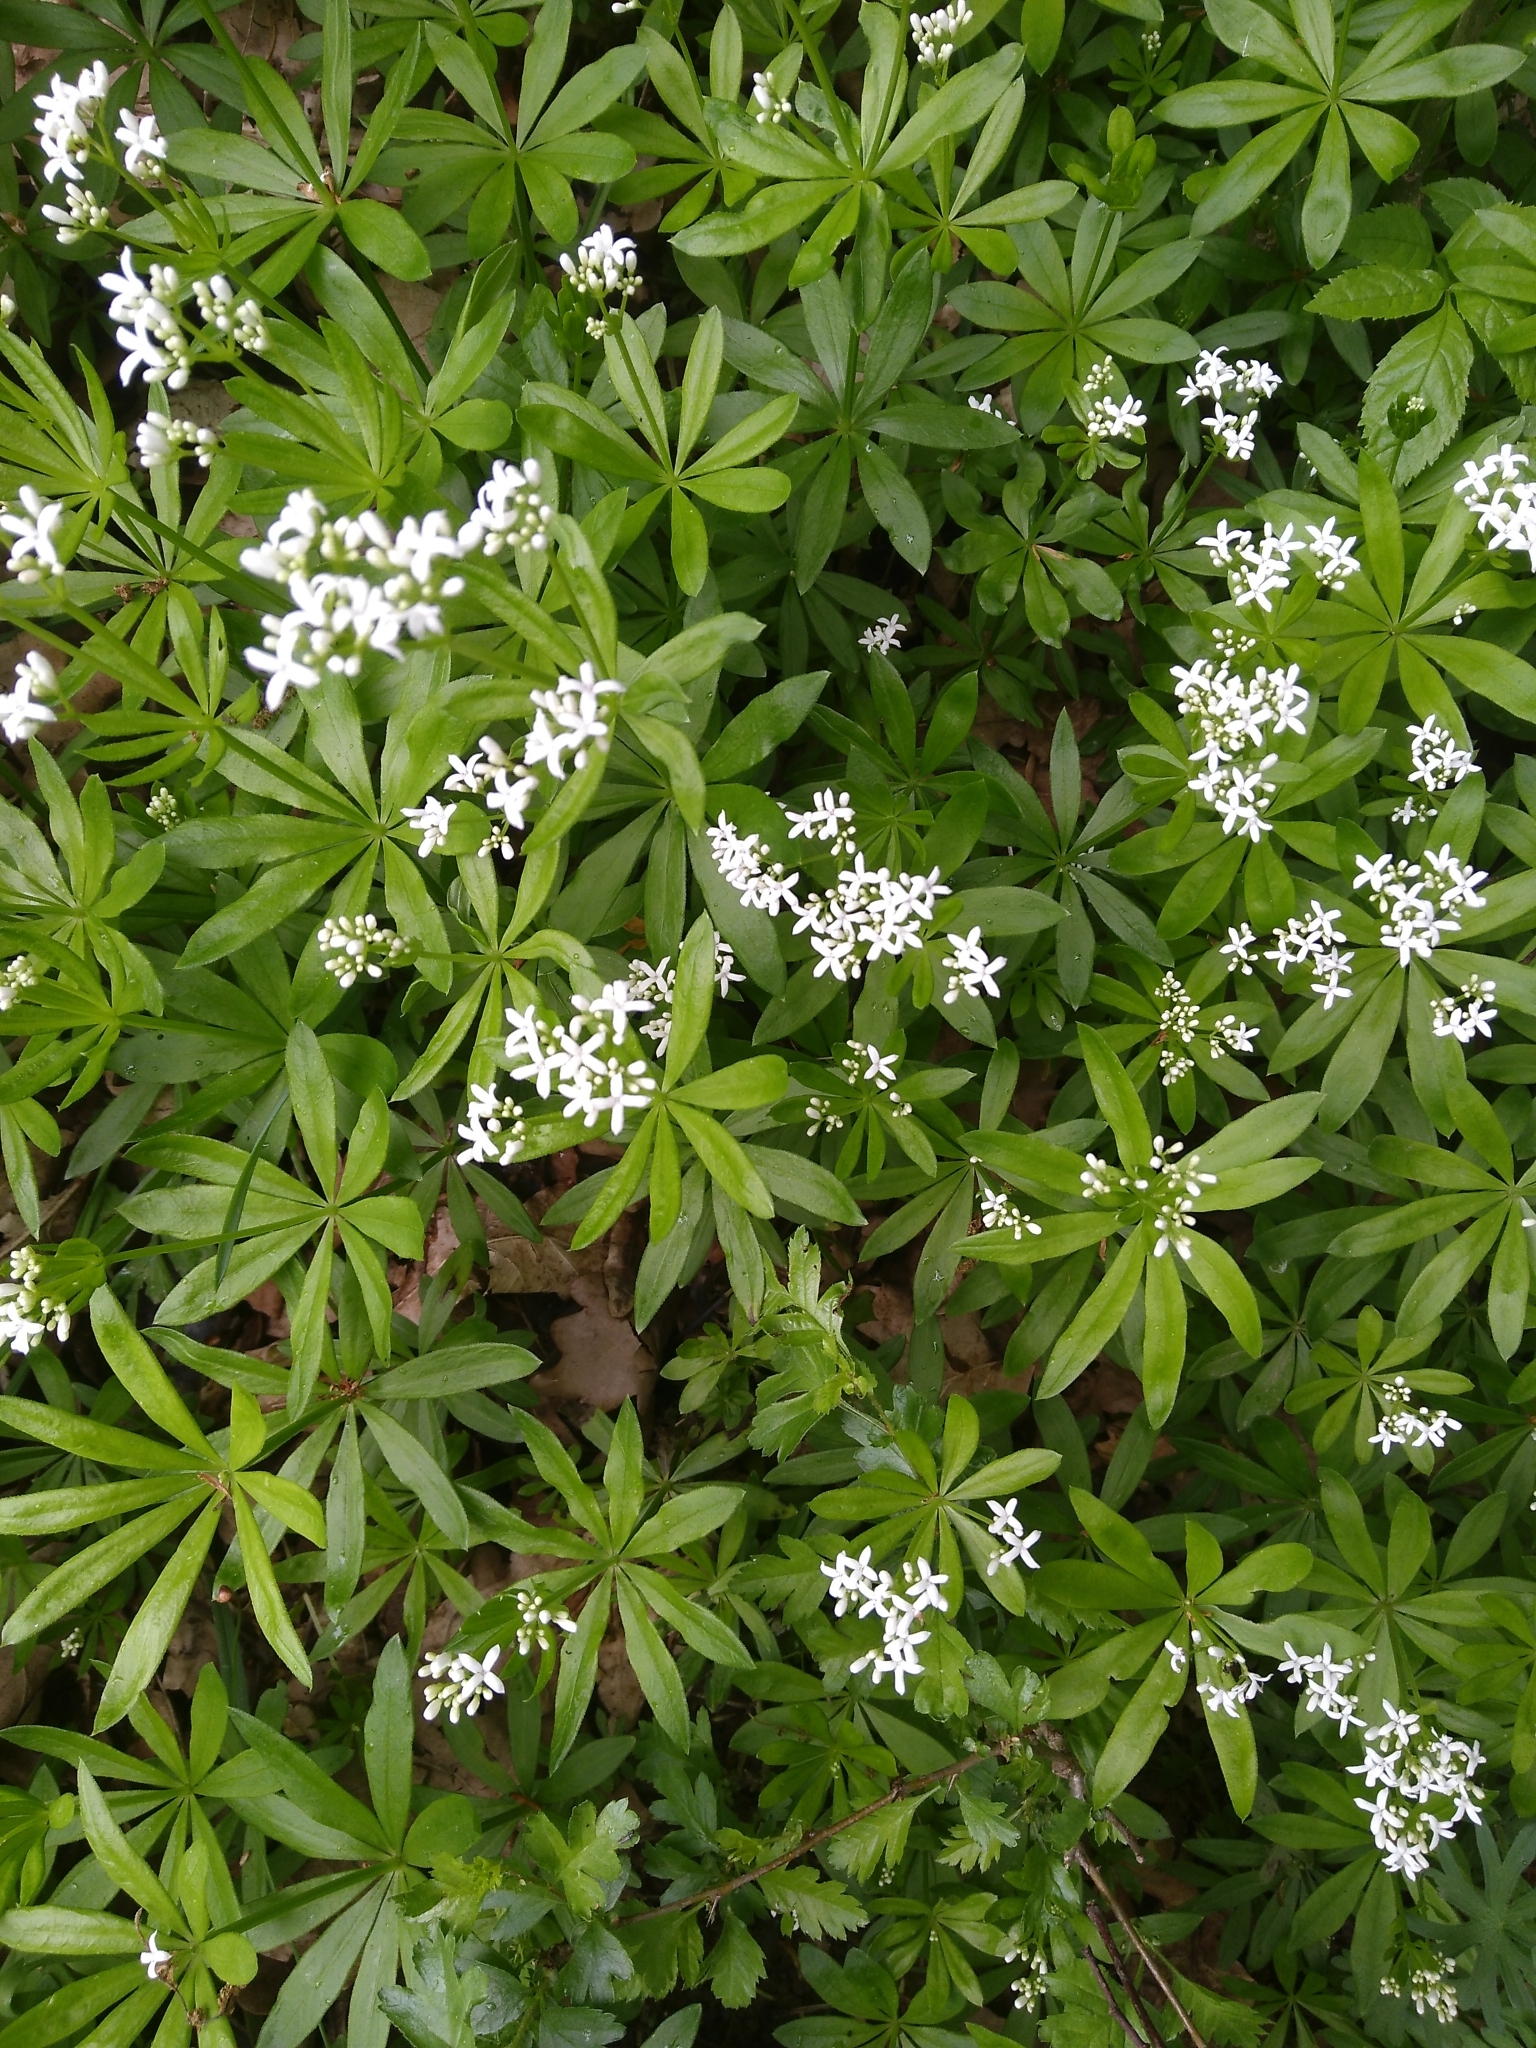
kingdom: Plantae
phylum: Tracheophyta
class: Magnoliopsida
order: Gentianales
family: Rubiaceae
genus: Galium
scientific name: Galium odoratum
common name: Sweet woodruff
